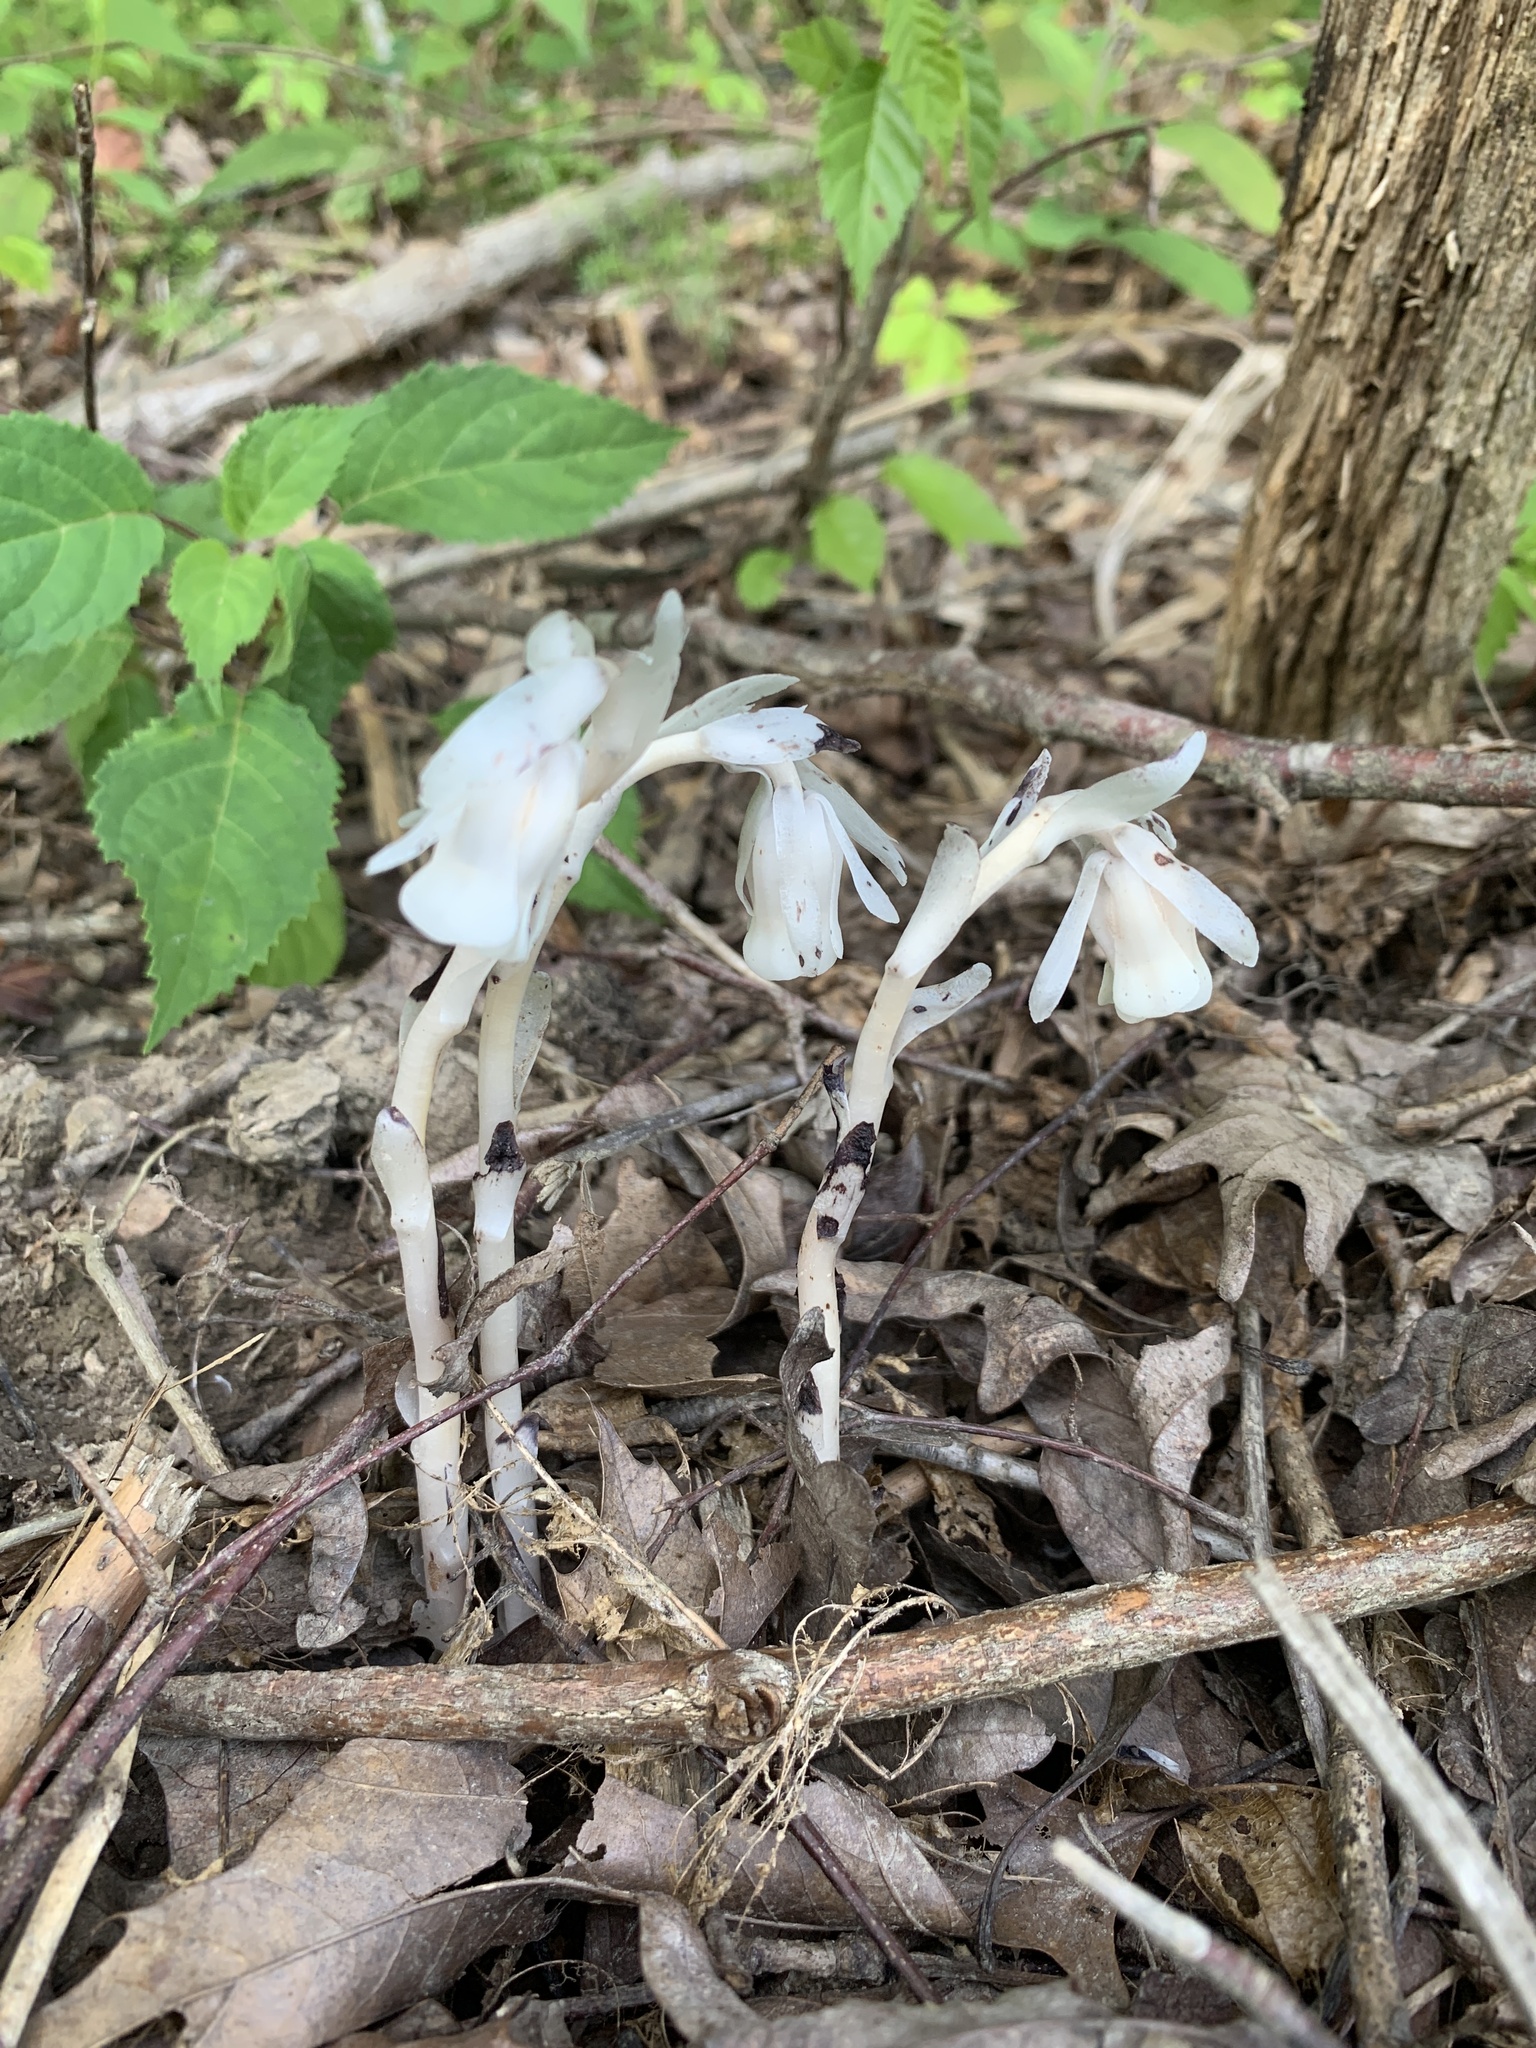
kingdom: Plantae
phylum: Tracheophyta
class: Magnoliopsida
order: Ericales
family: Ericaceae
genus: Monotropa
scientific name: Monotropa uniflora
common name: Convulsion root
